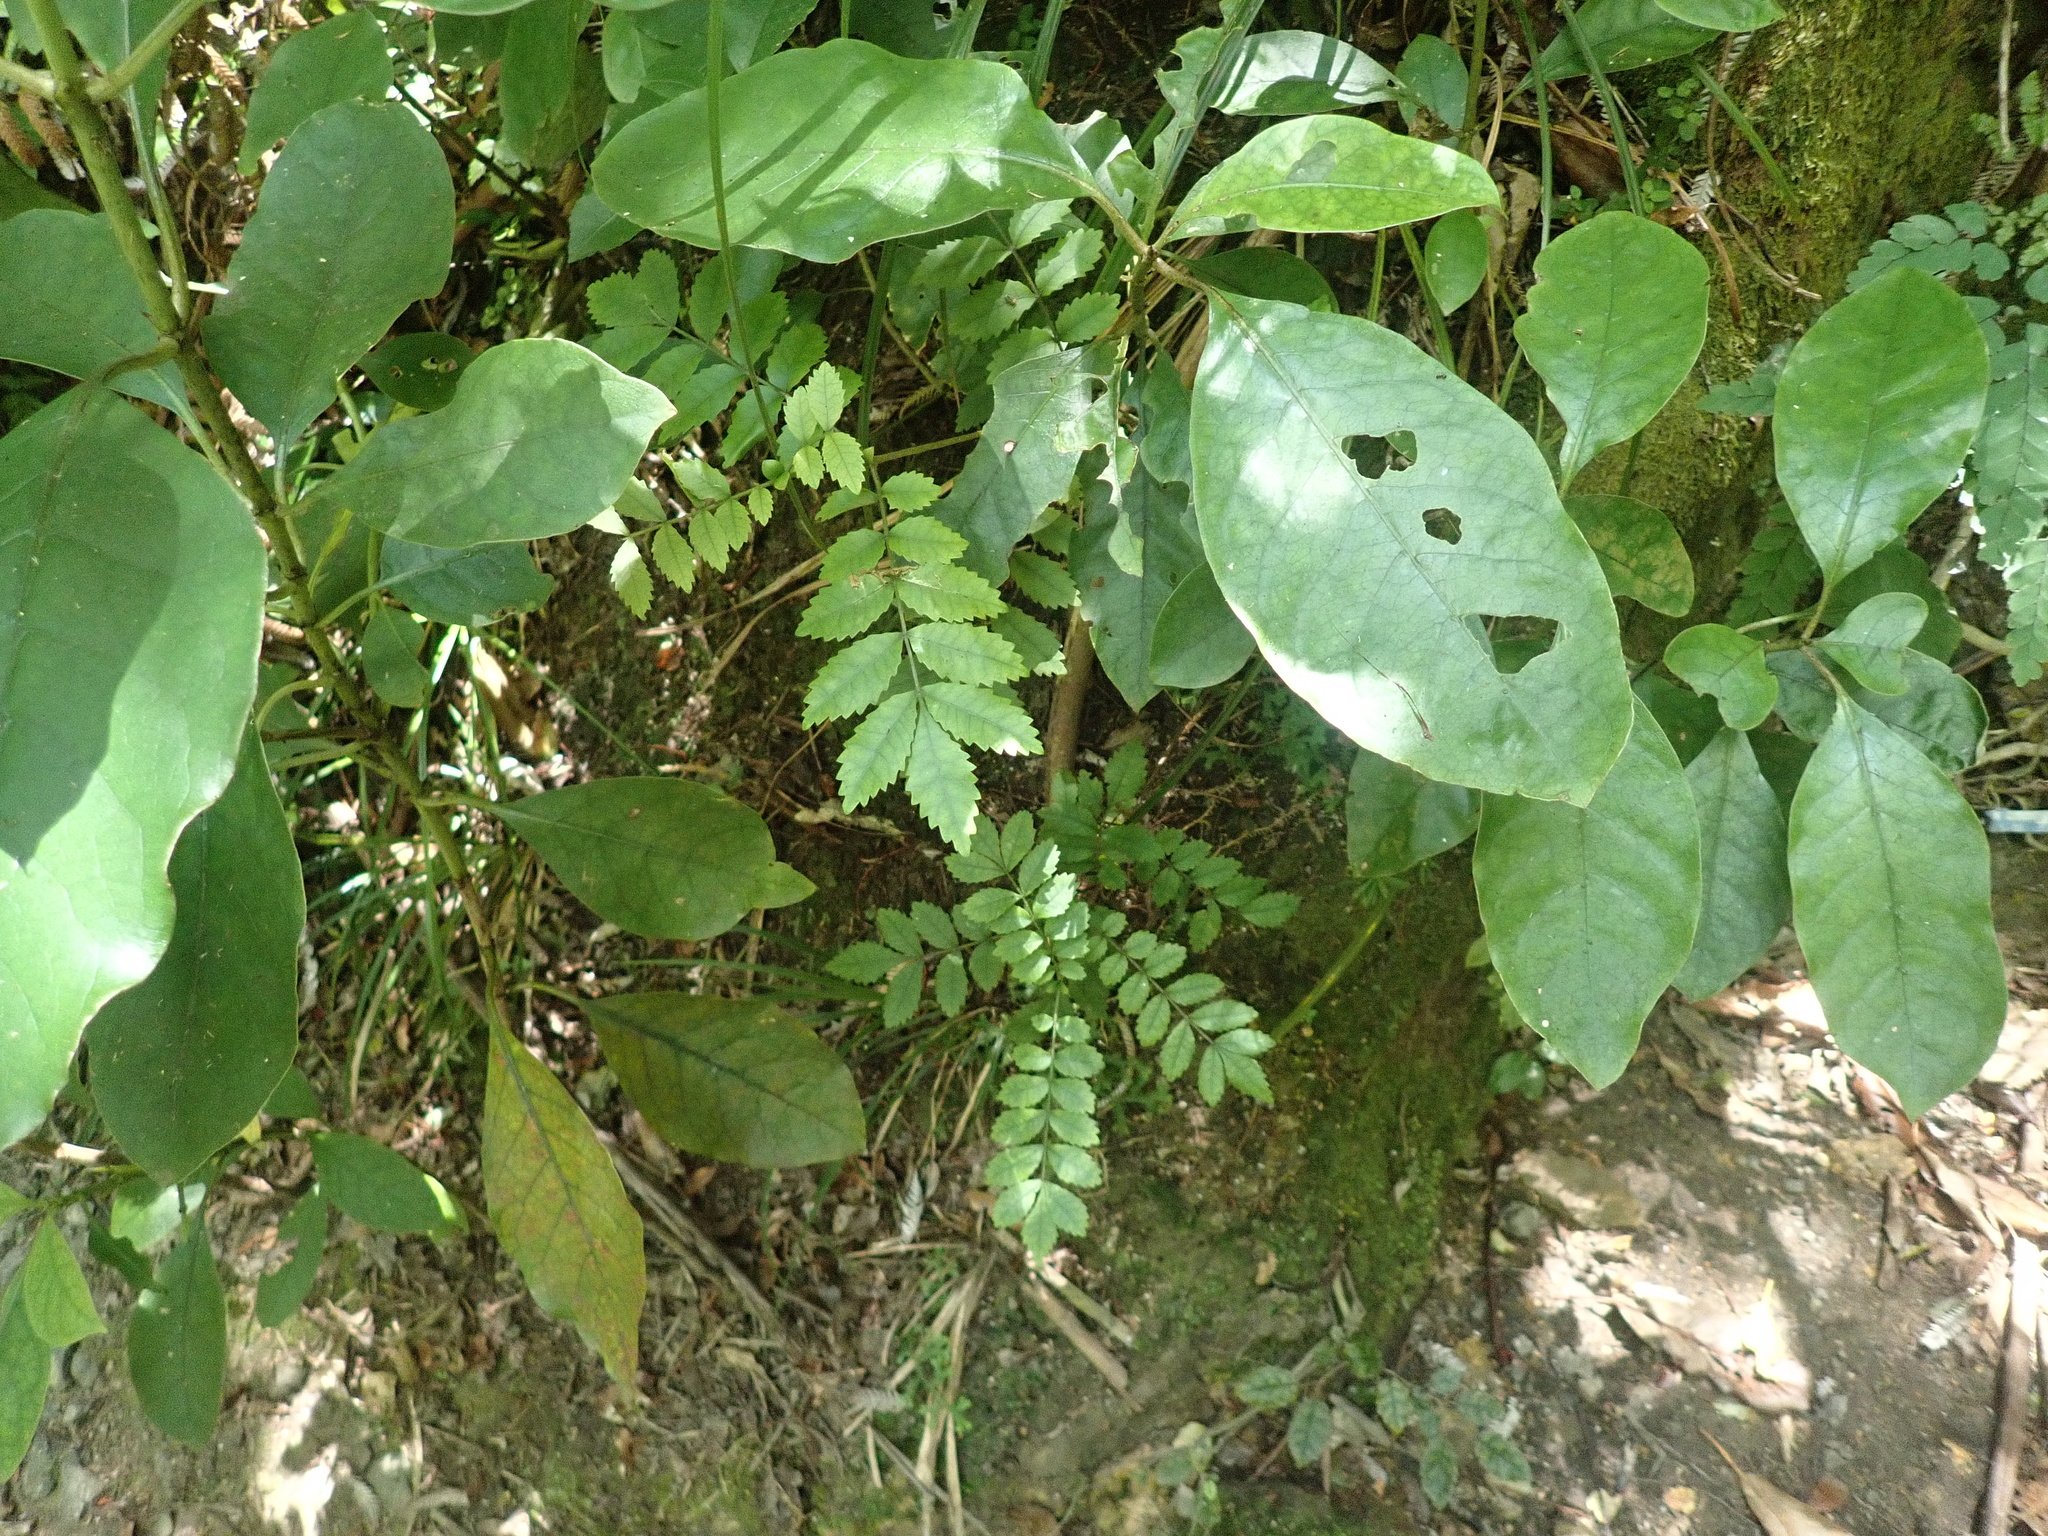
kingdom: Plantae
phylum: Tracheophyta
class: Magnoliopsida
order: Gentianales
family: Rubiaceae
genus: Coprosma
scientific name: Coprosma autumnalis
